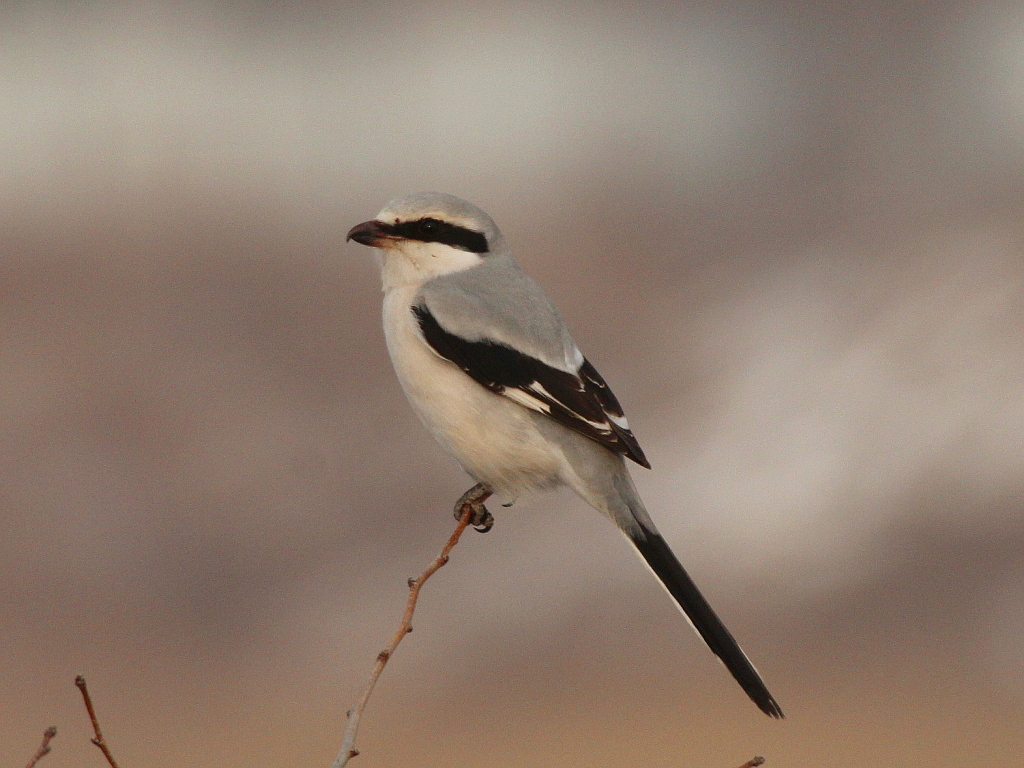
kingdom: Animalia
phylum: Chordata
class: Aves
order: Passeriformes
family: Laniidae
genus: Lanius
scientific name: Lanius sphenocercus
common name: Chinese grey shrike
